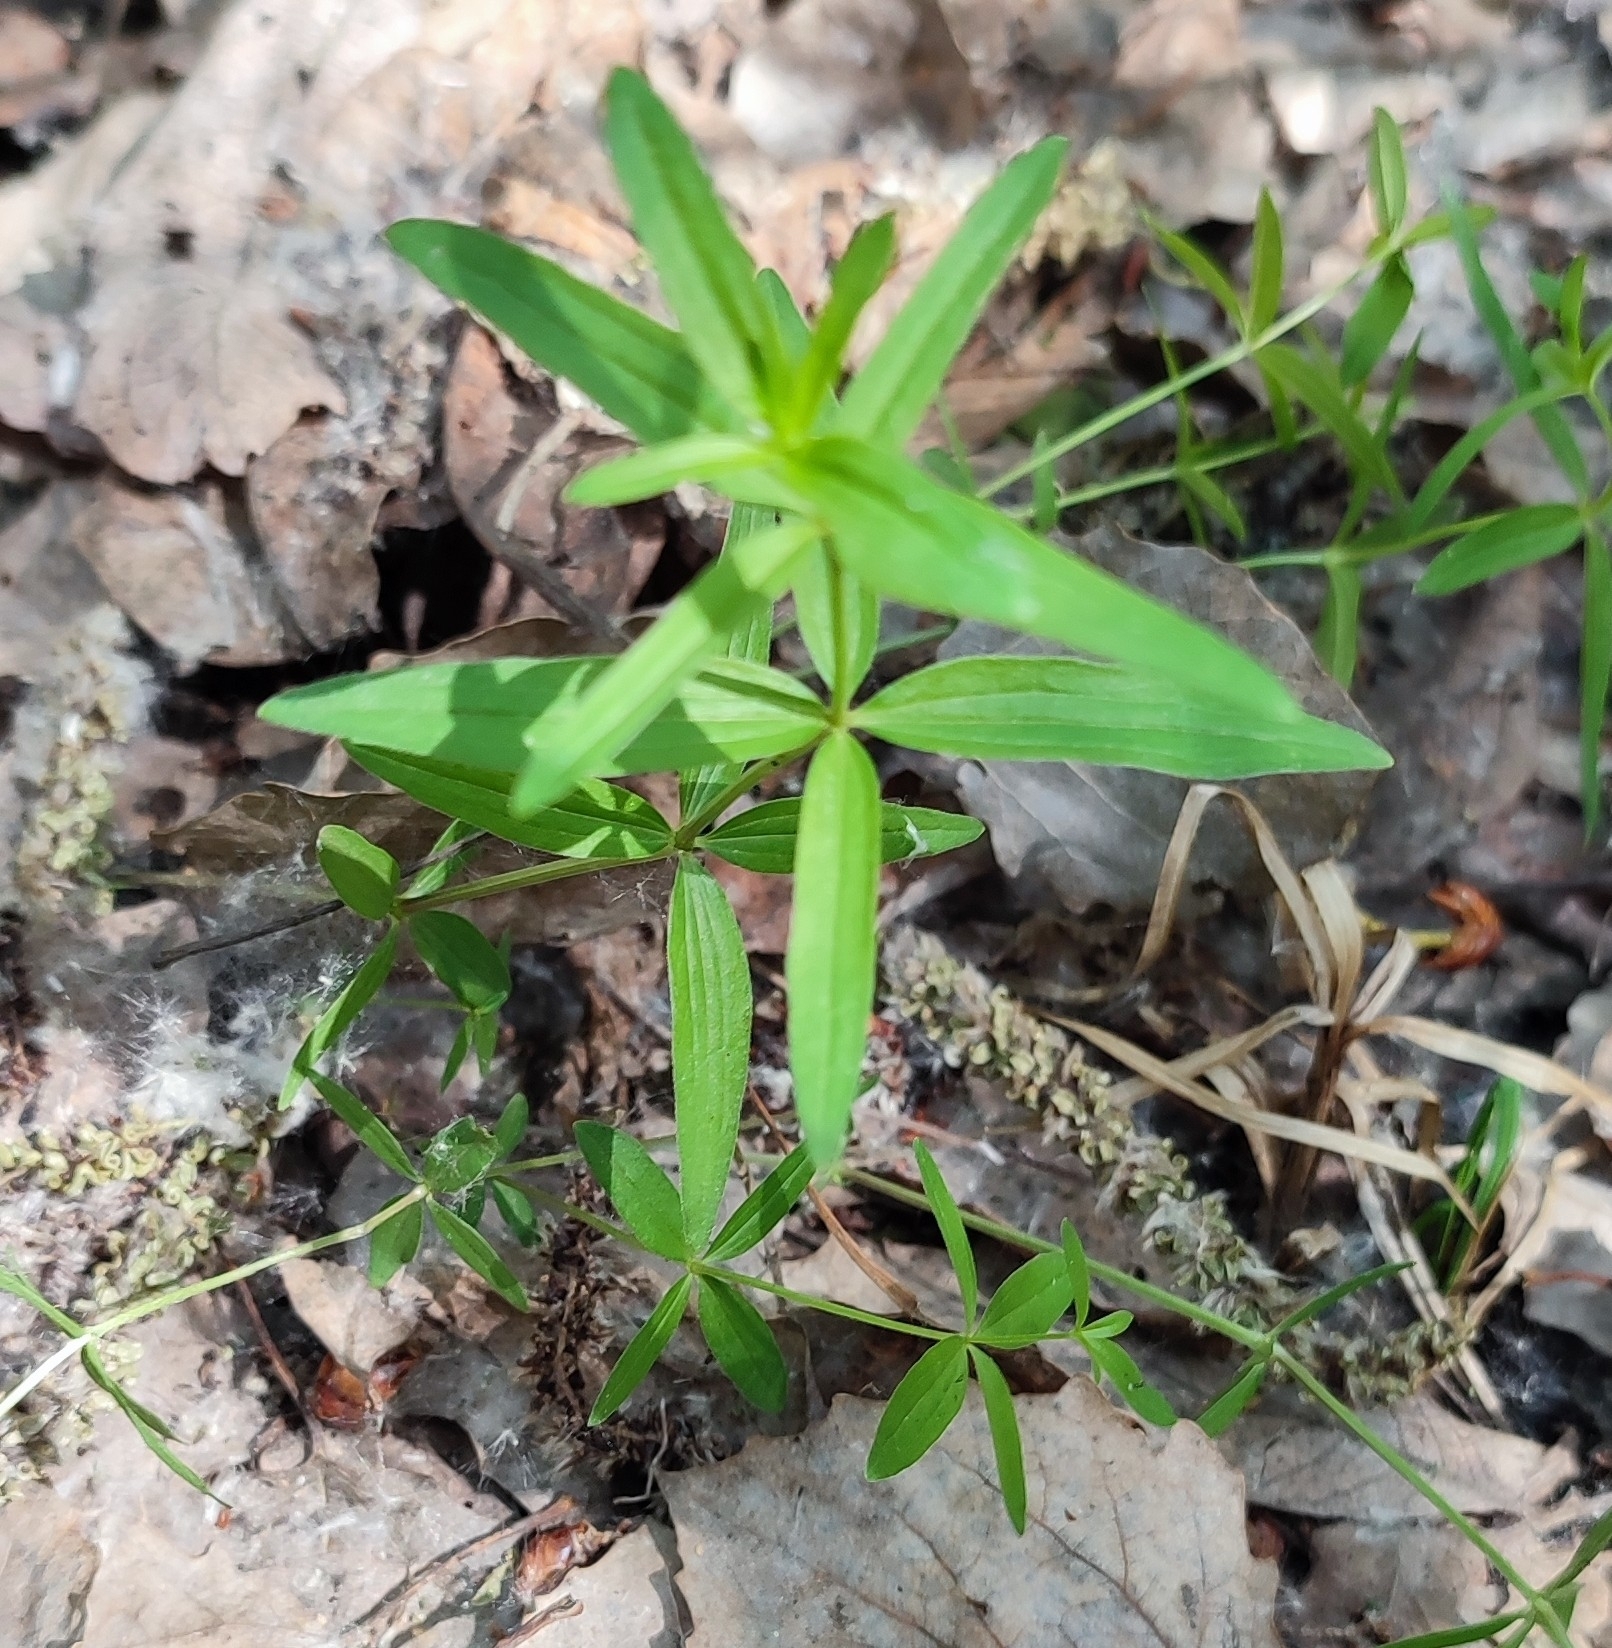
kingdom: Plantae
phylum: Tracheophyta
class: Magnoliopsida
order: Gentianales
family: Rubiaceae
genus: Galium
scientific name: Galium boreale
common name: Northern bedstraw
